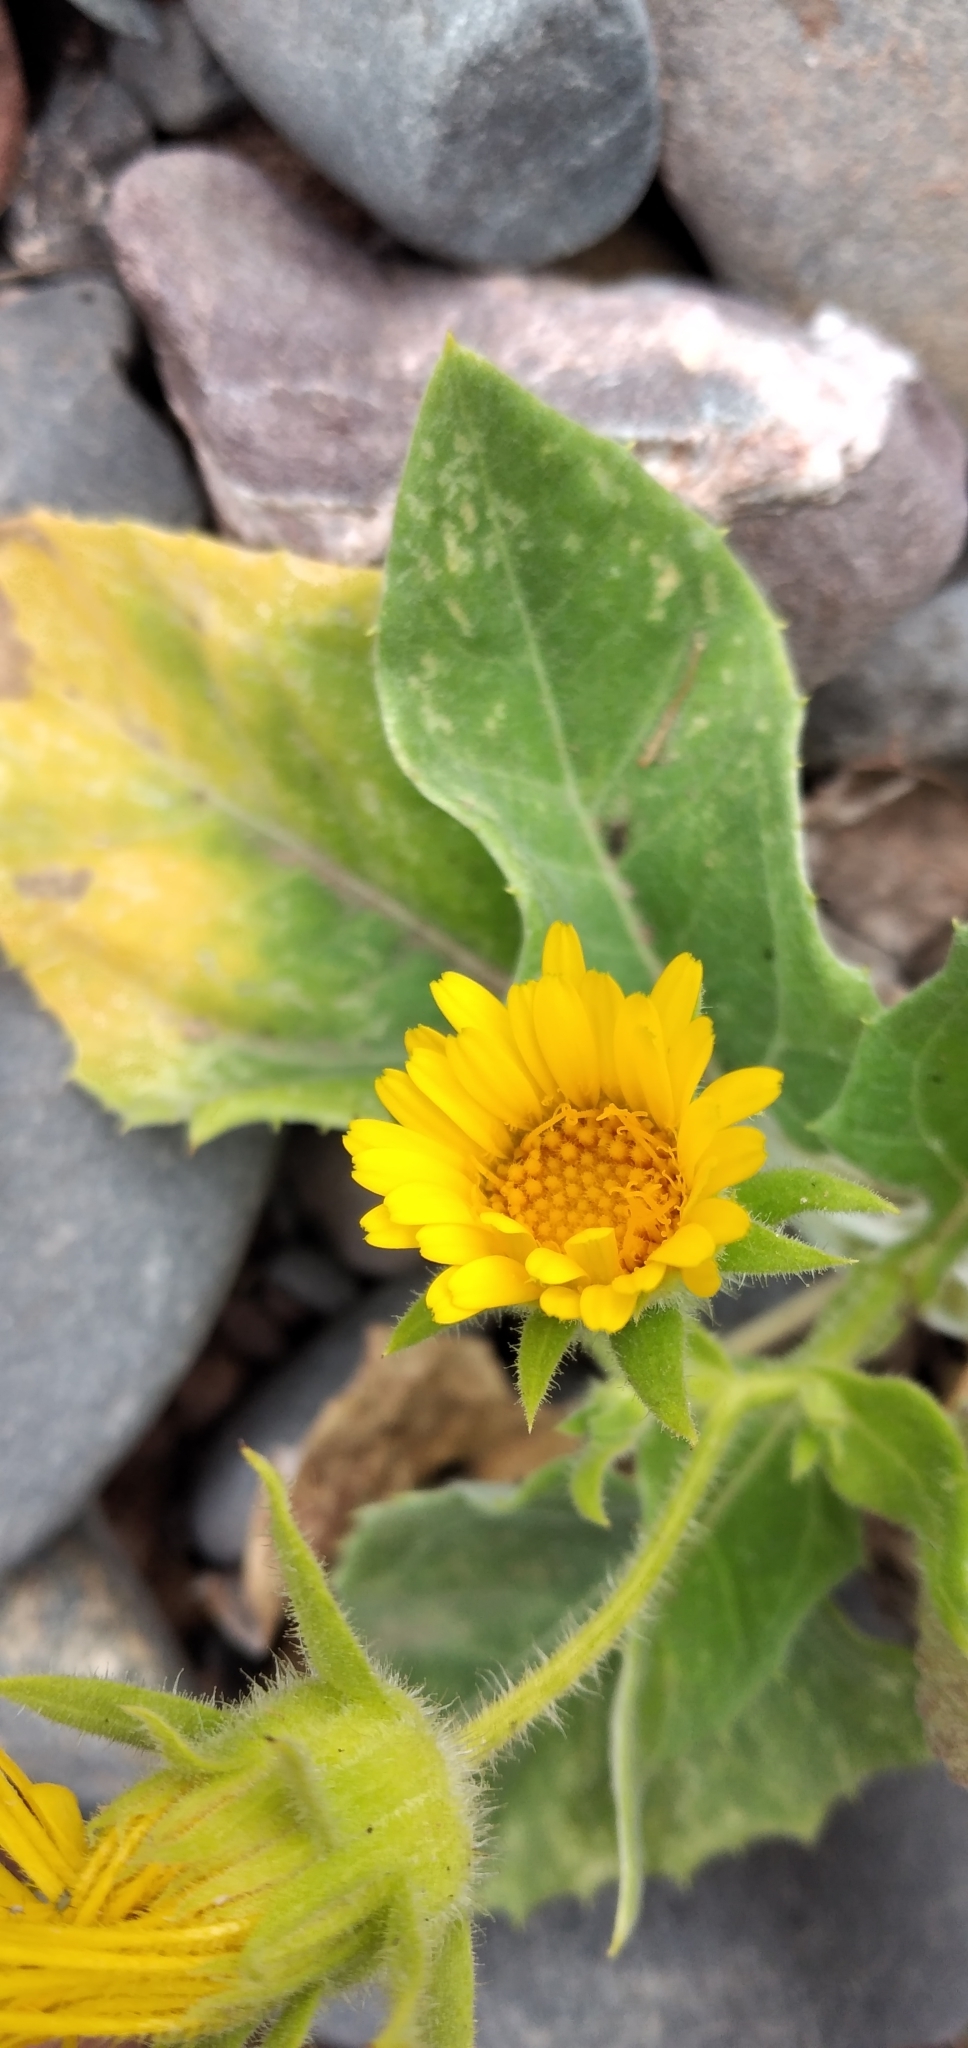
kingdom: Plantae
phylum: Tracheophyta
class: Magnoliopsida
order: Asterales
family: Asteraceae
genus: Microliabum
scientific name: Microliabum polymnioides
